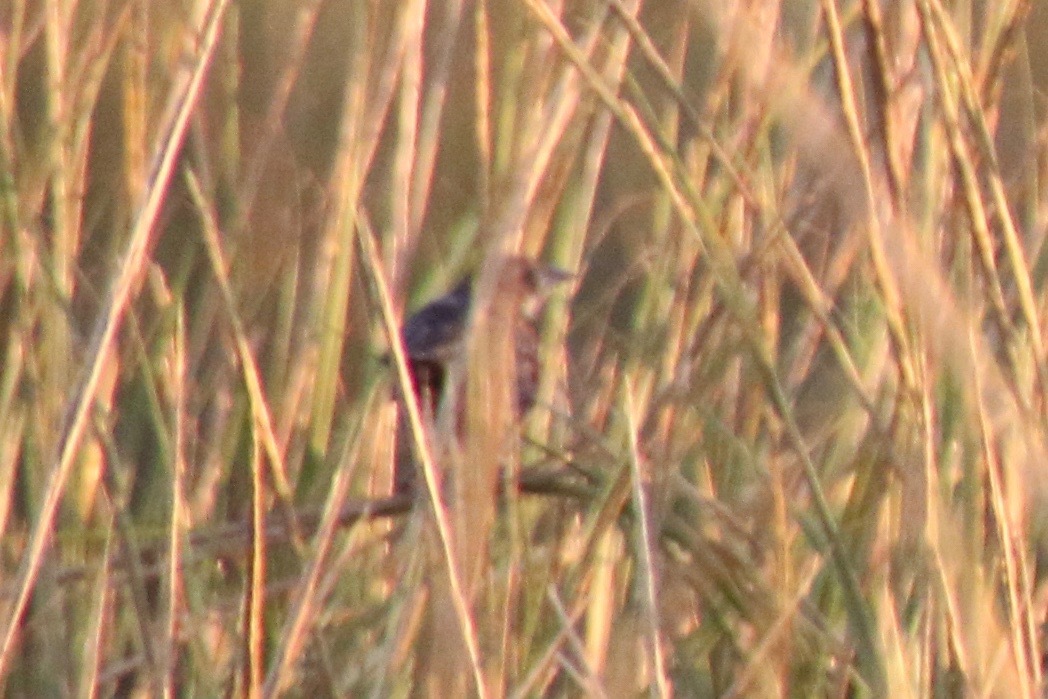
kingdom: Animalia
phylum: Chordata
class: Aves
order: Passeriformes
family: Passerellidae
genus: Ammospiza
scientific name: Ammospiza maritima
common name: Seaside sparrow
